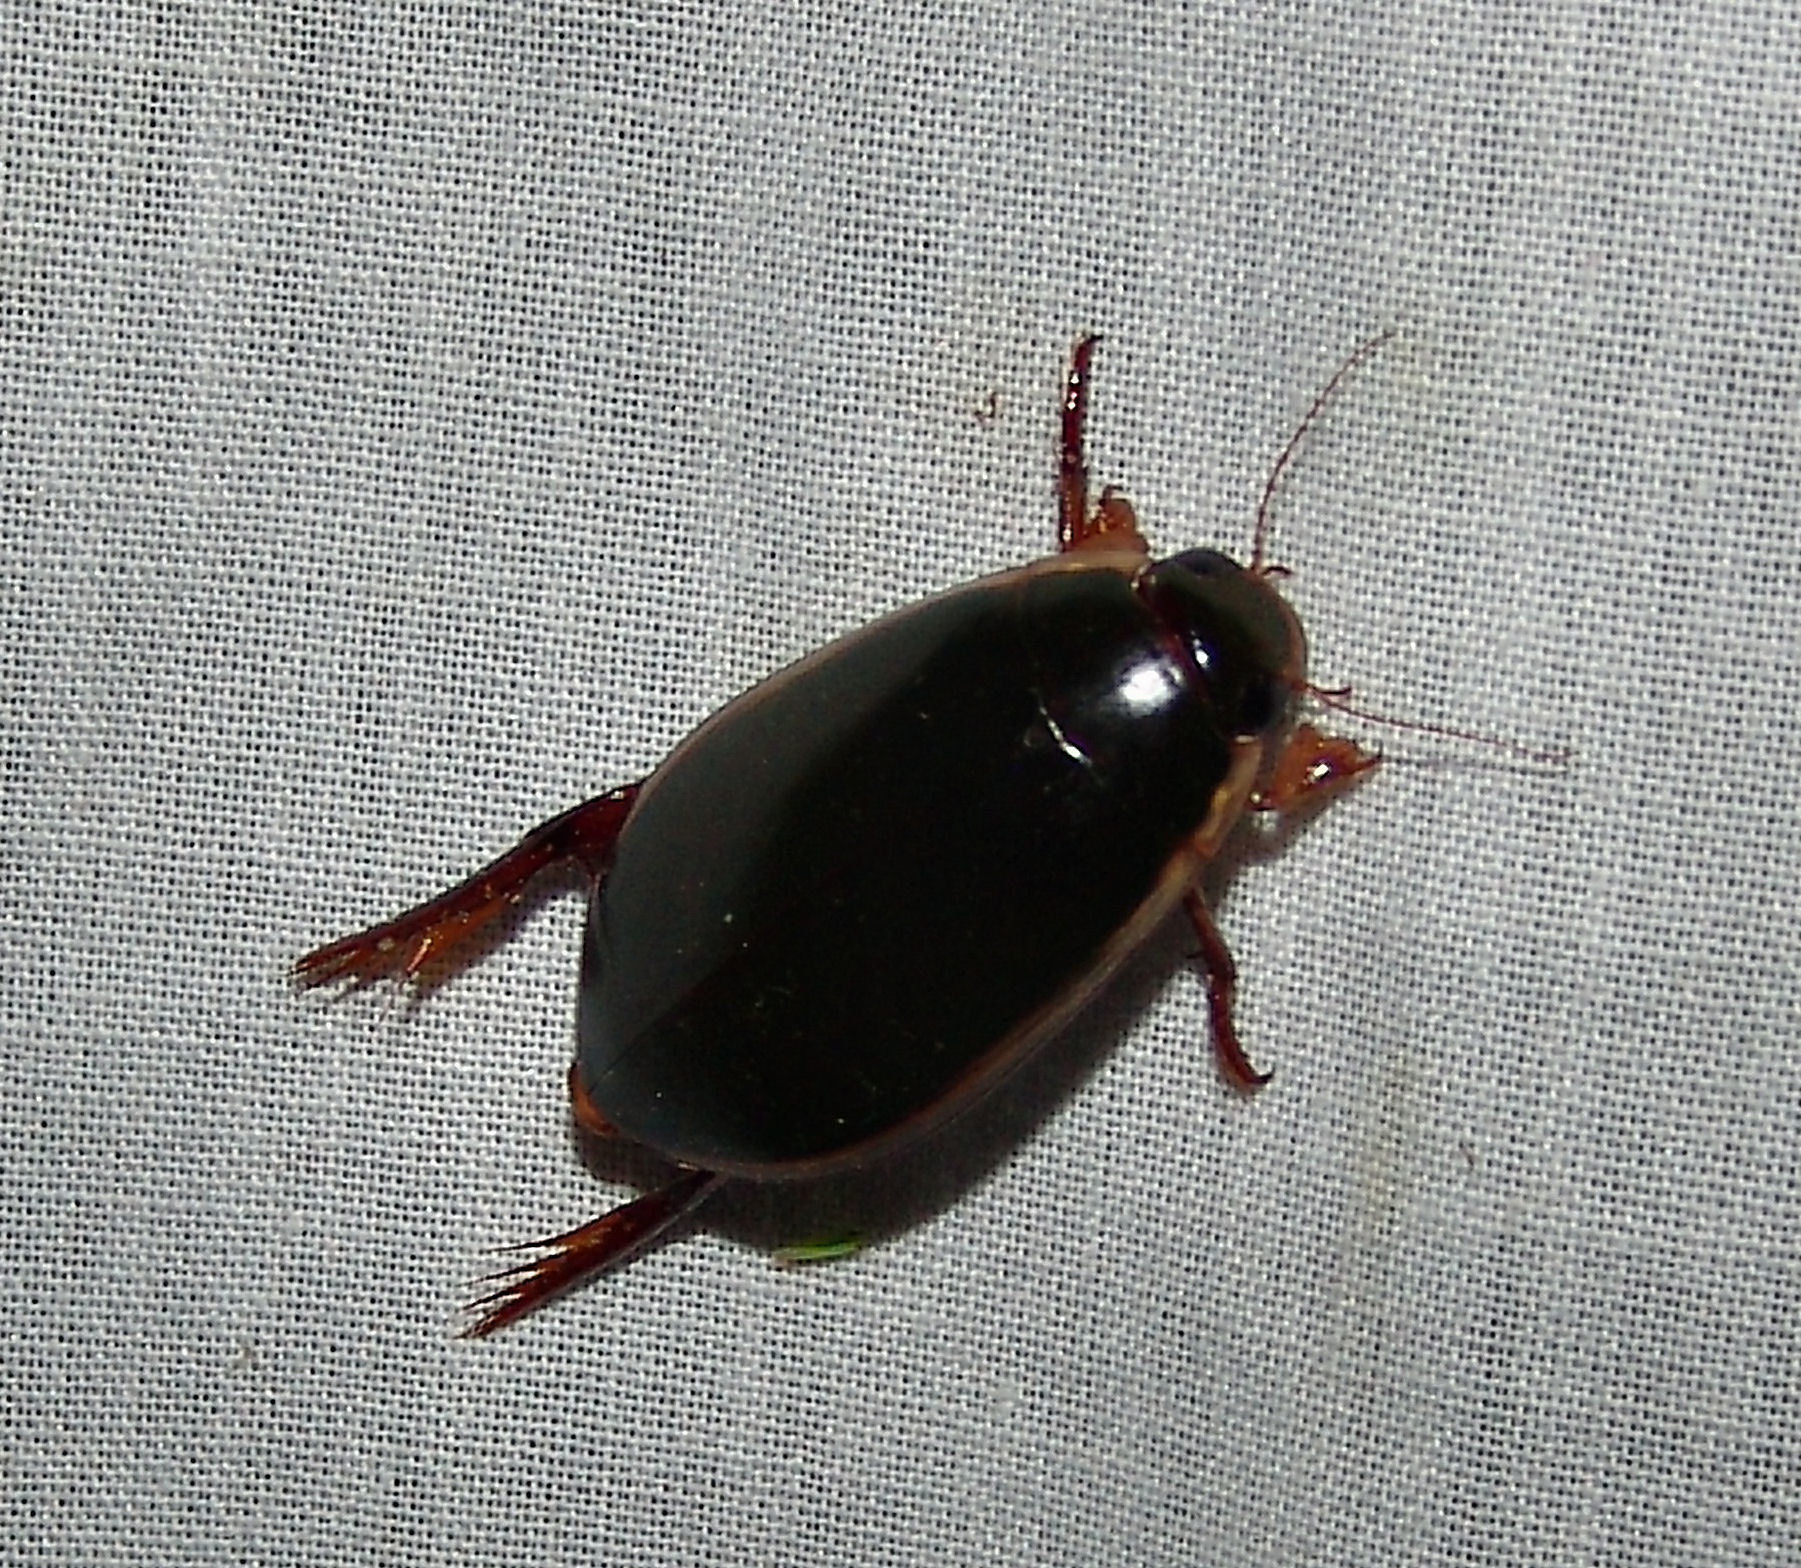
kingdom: Animalia
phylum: Arthropoda
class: Insecta
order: Coleoptera
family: Dytiscidae
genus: Cybister
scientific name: Cybister fimbriolatus
